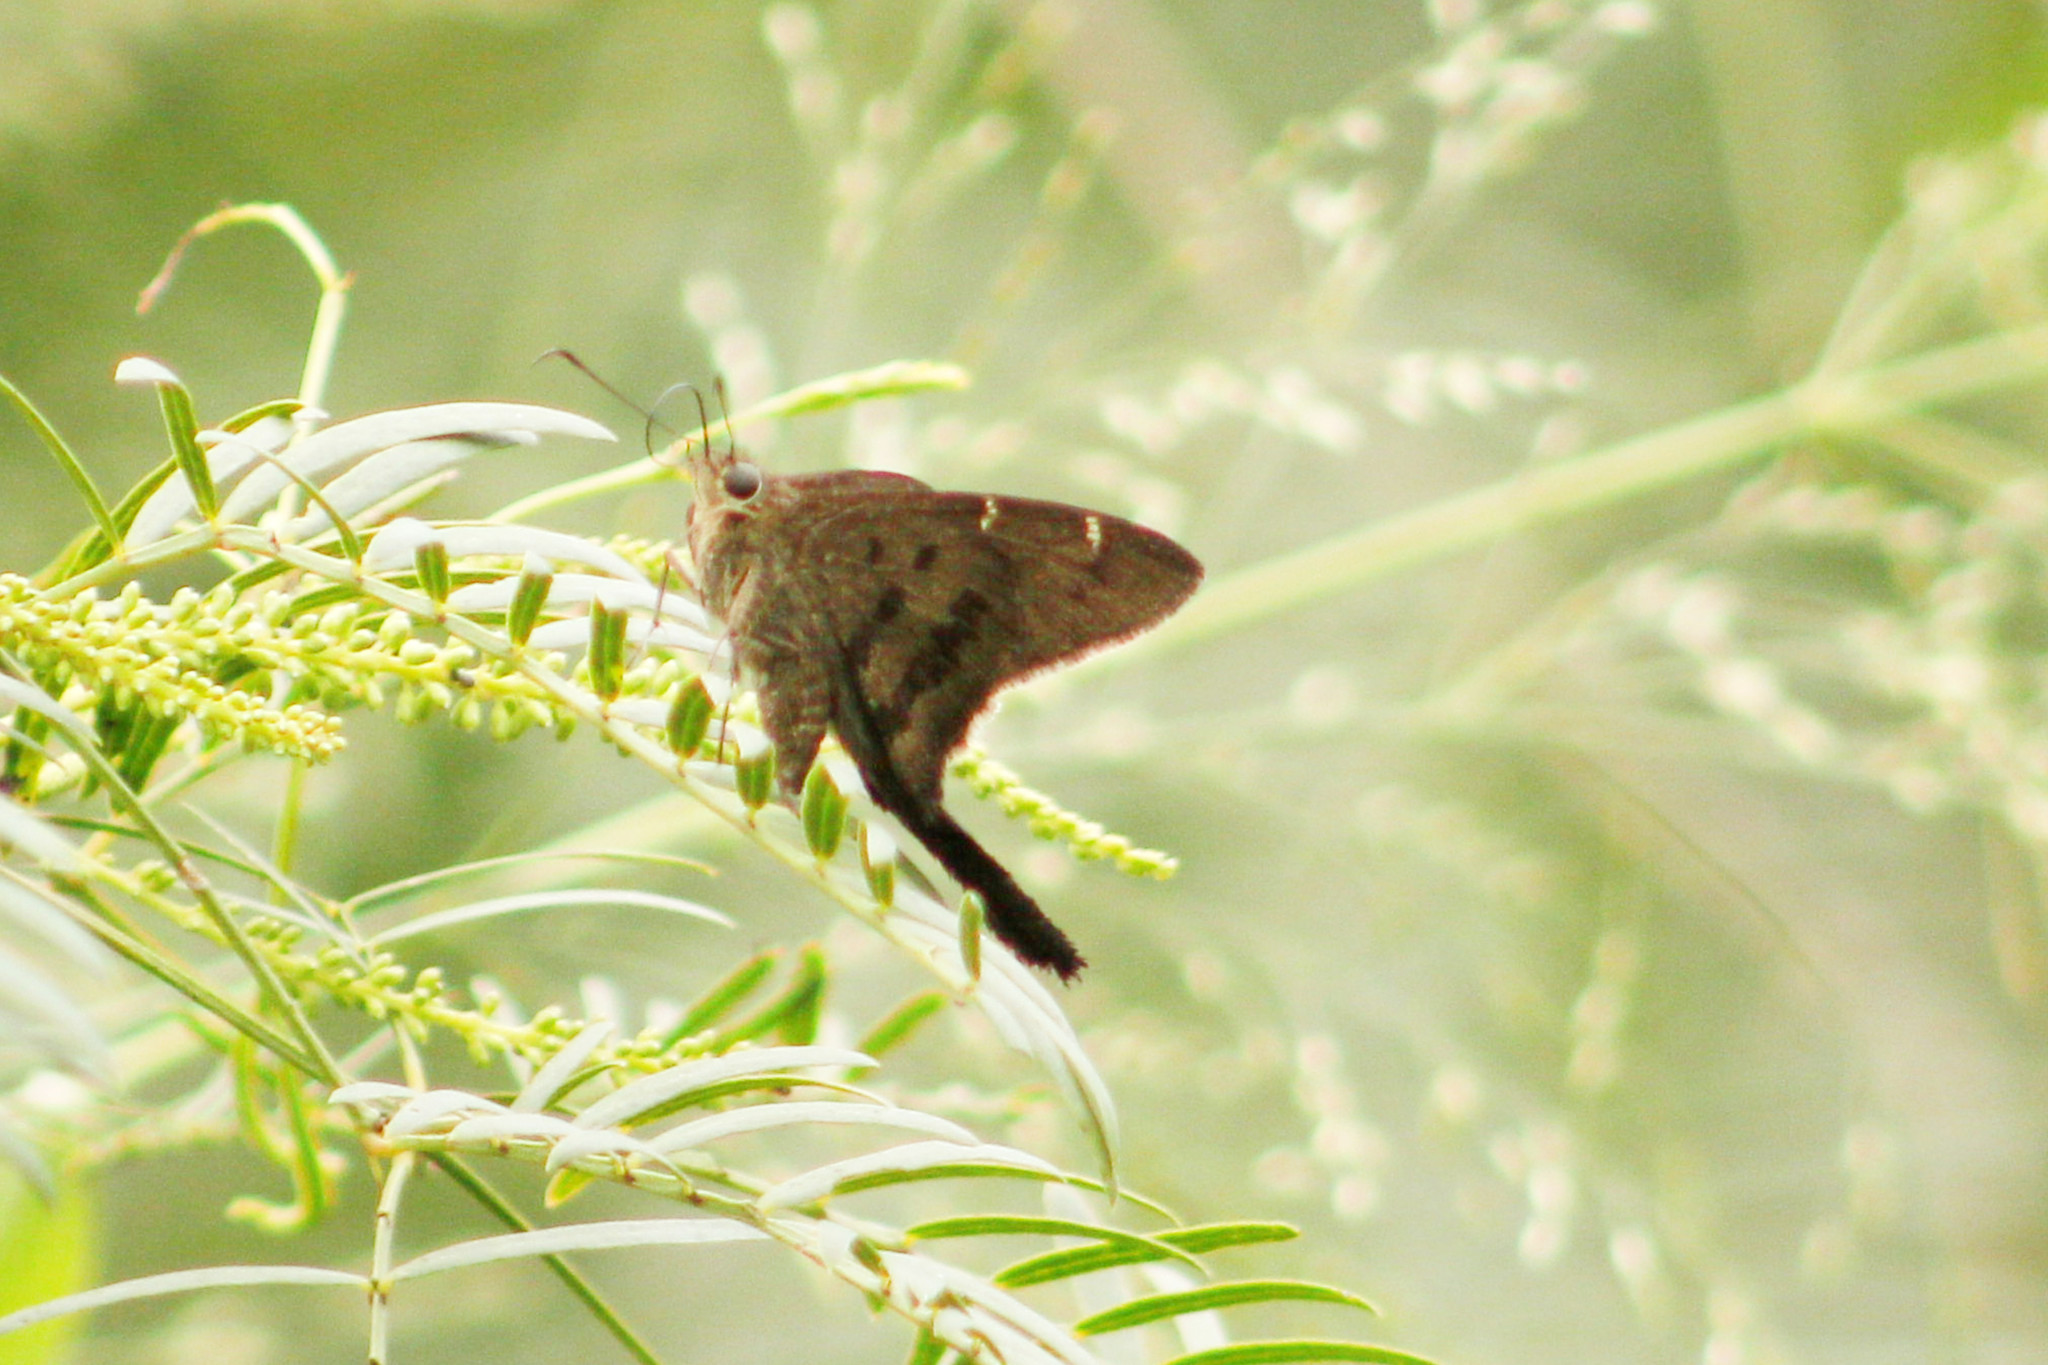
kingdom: Animalia
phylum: Arthropoda
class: Insecta
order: Lepidoptera
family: Hesperiidae
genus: Urbanus
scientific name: Urbanus procne
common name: Brown longtail
